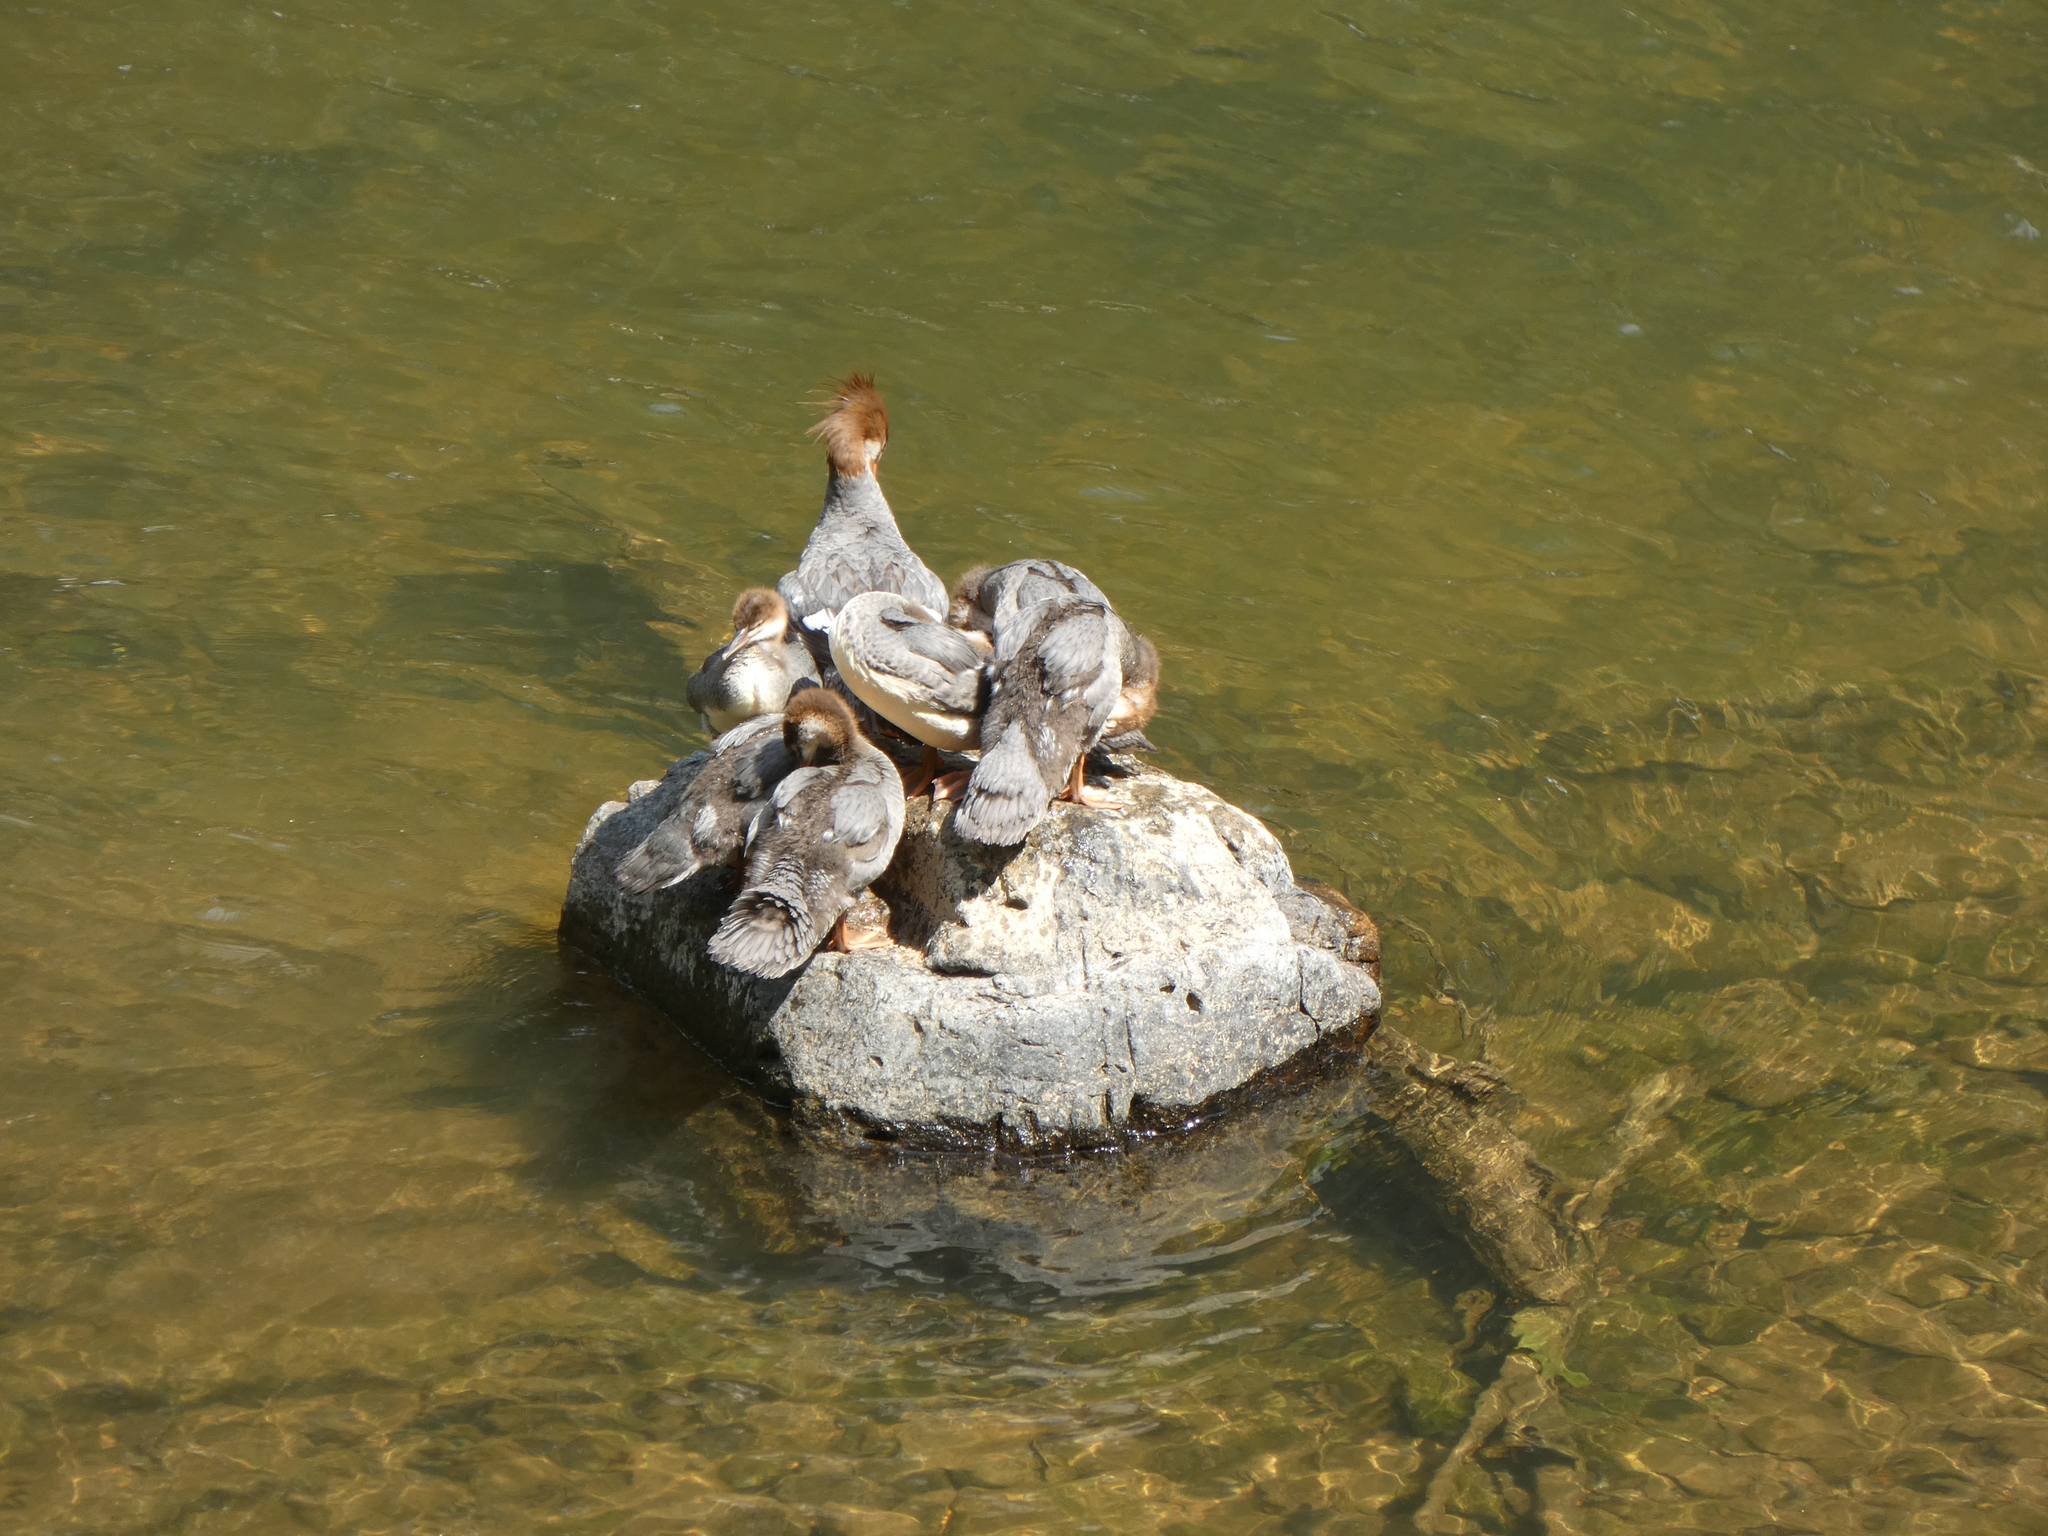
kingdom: Animalia
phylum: Chordata
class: Aves
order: Anseriformes
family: Anatidae
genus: Mergus
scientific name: Mergus merganser
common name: Common merganser
